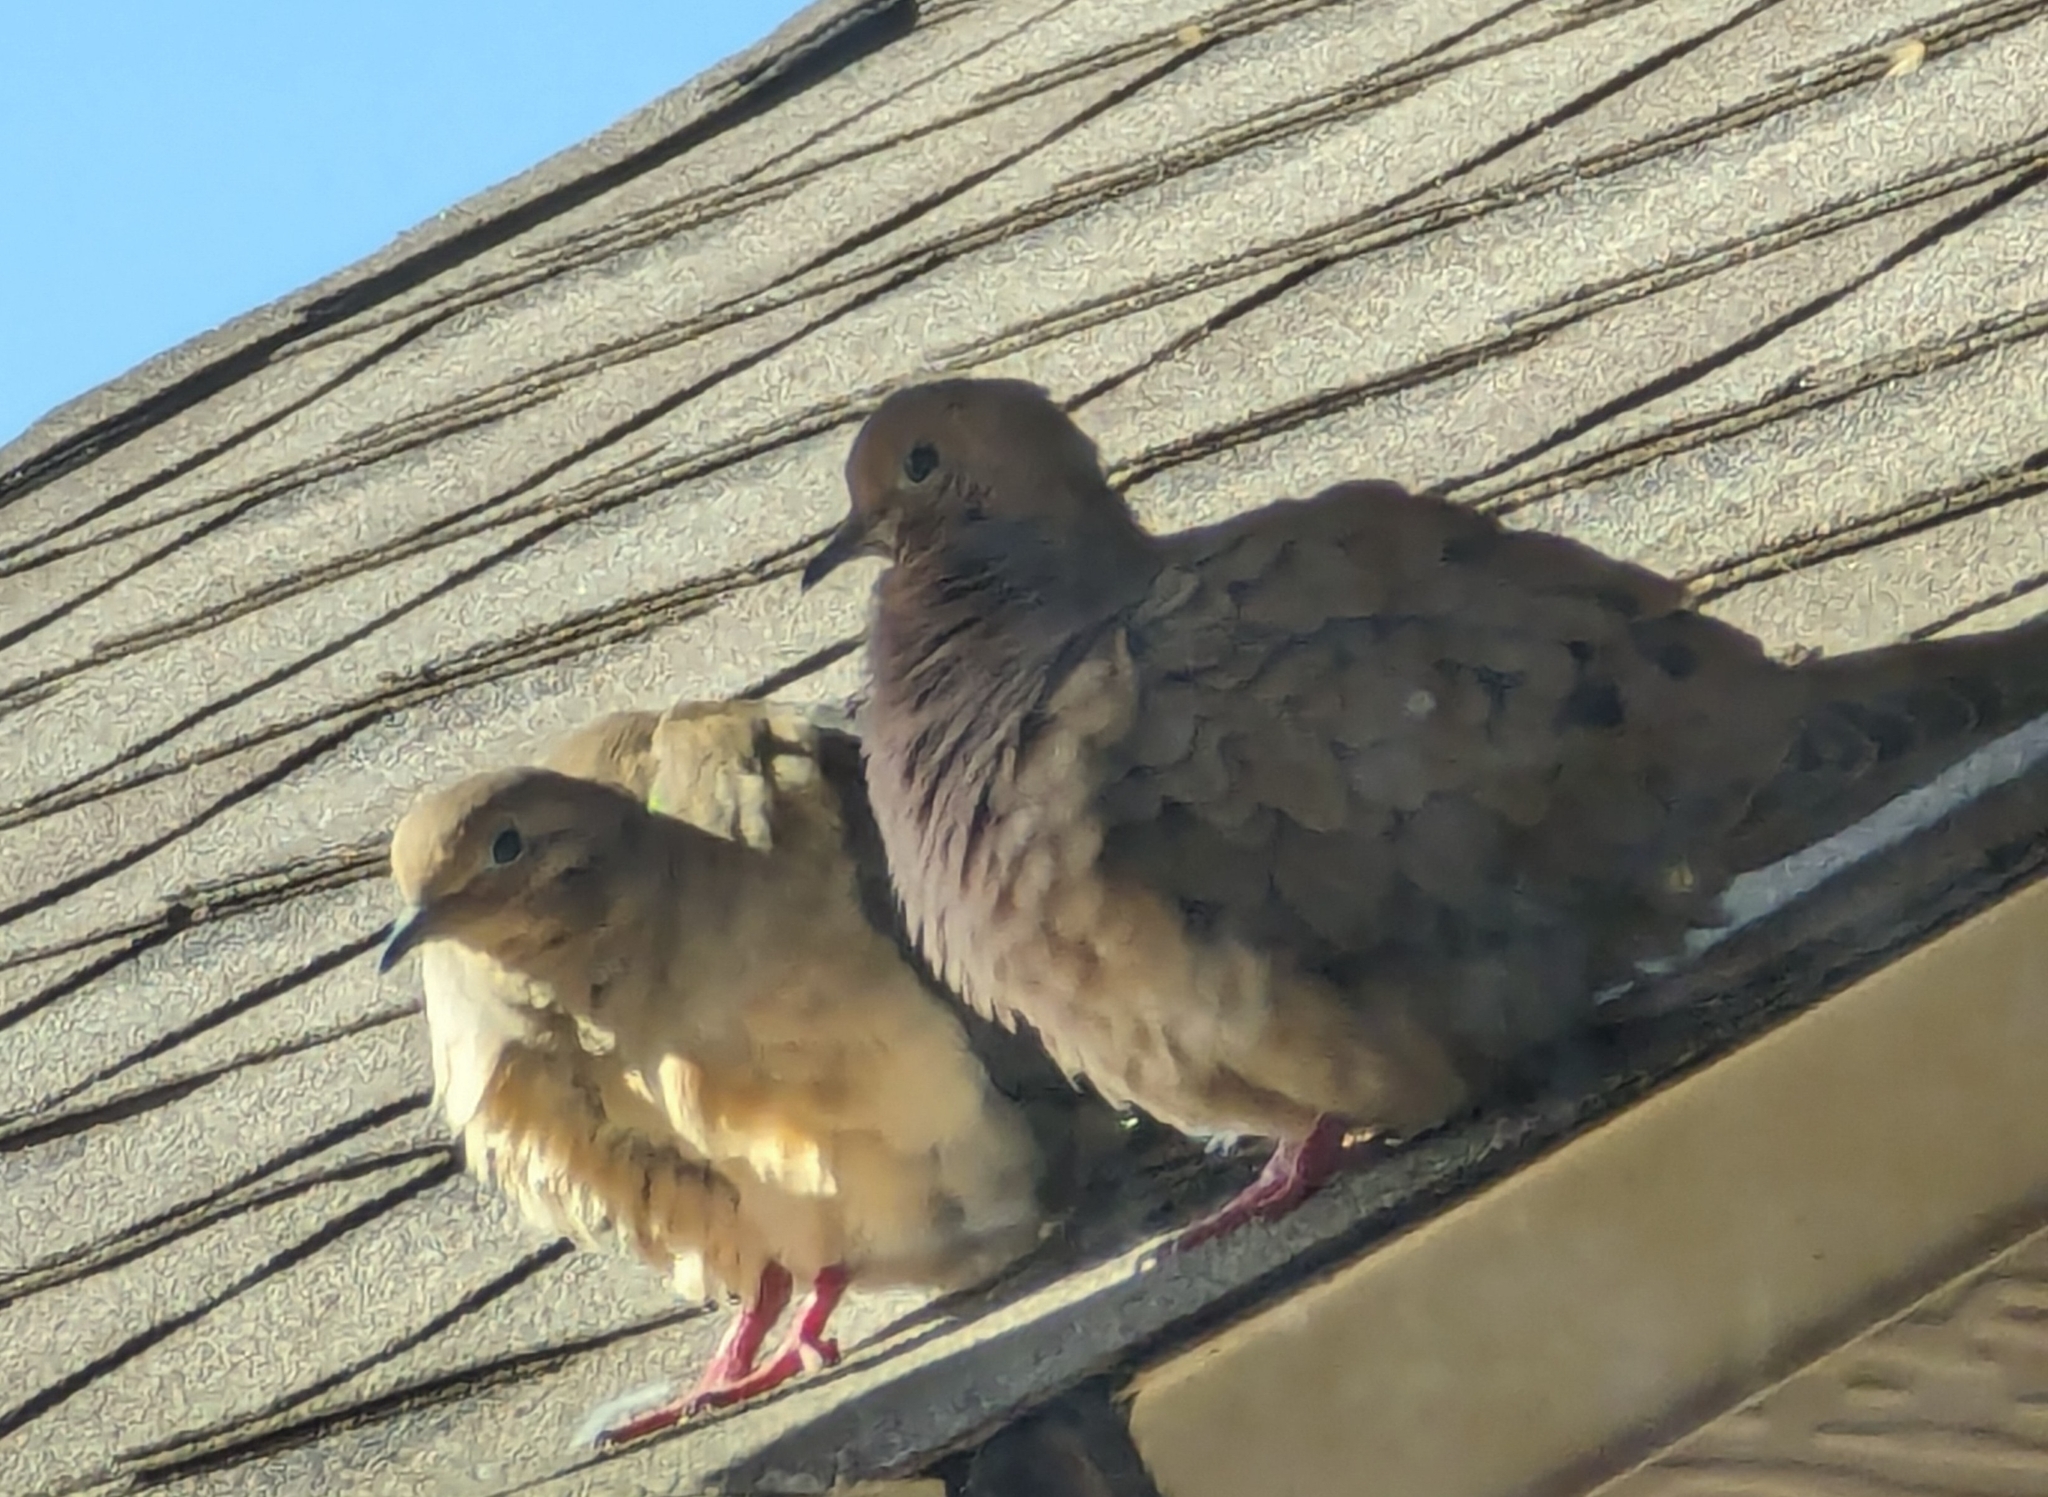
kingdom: Animalia
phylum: Chordata
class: Aves
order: Columbiformes
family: Columbidae
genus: Zenaida
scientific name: Zenaida macroura
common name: Mourning dove
